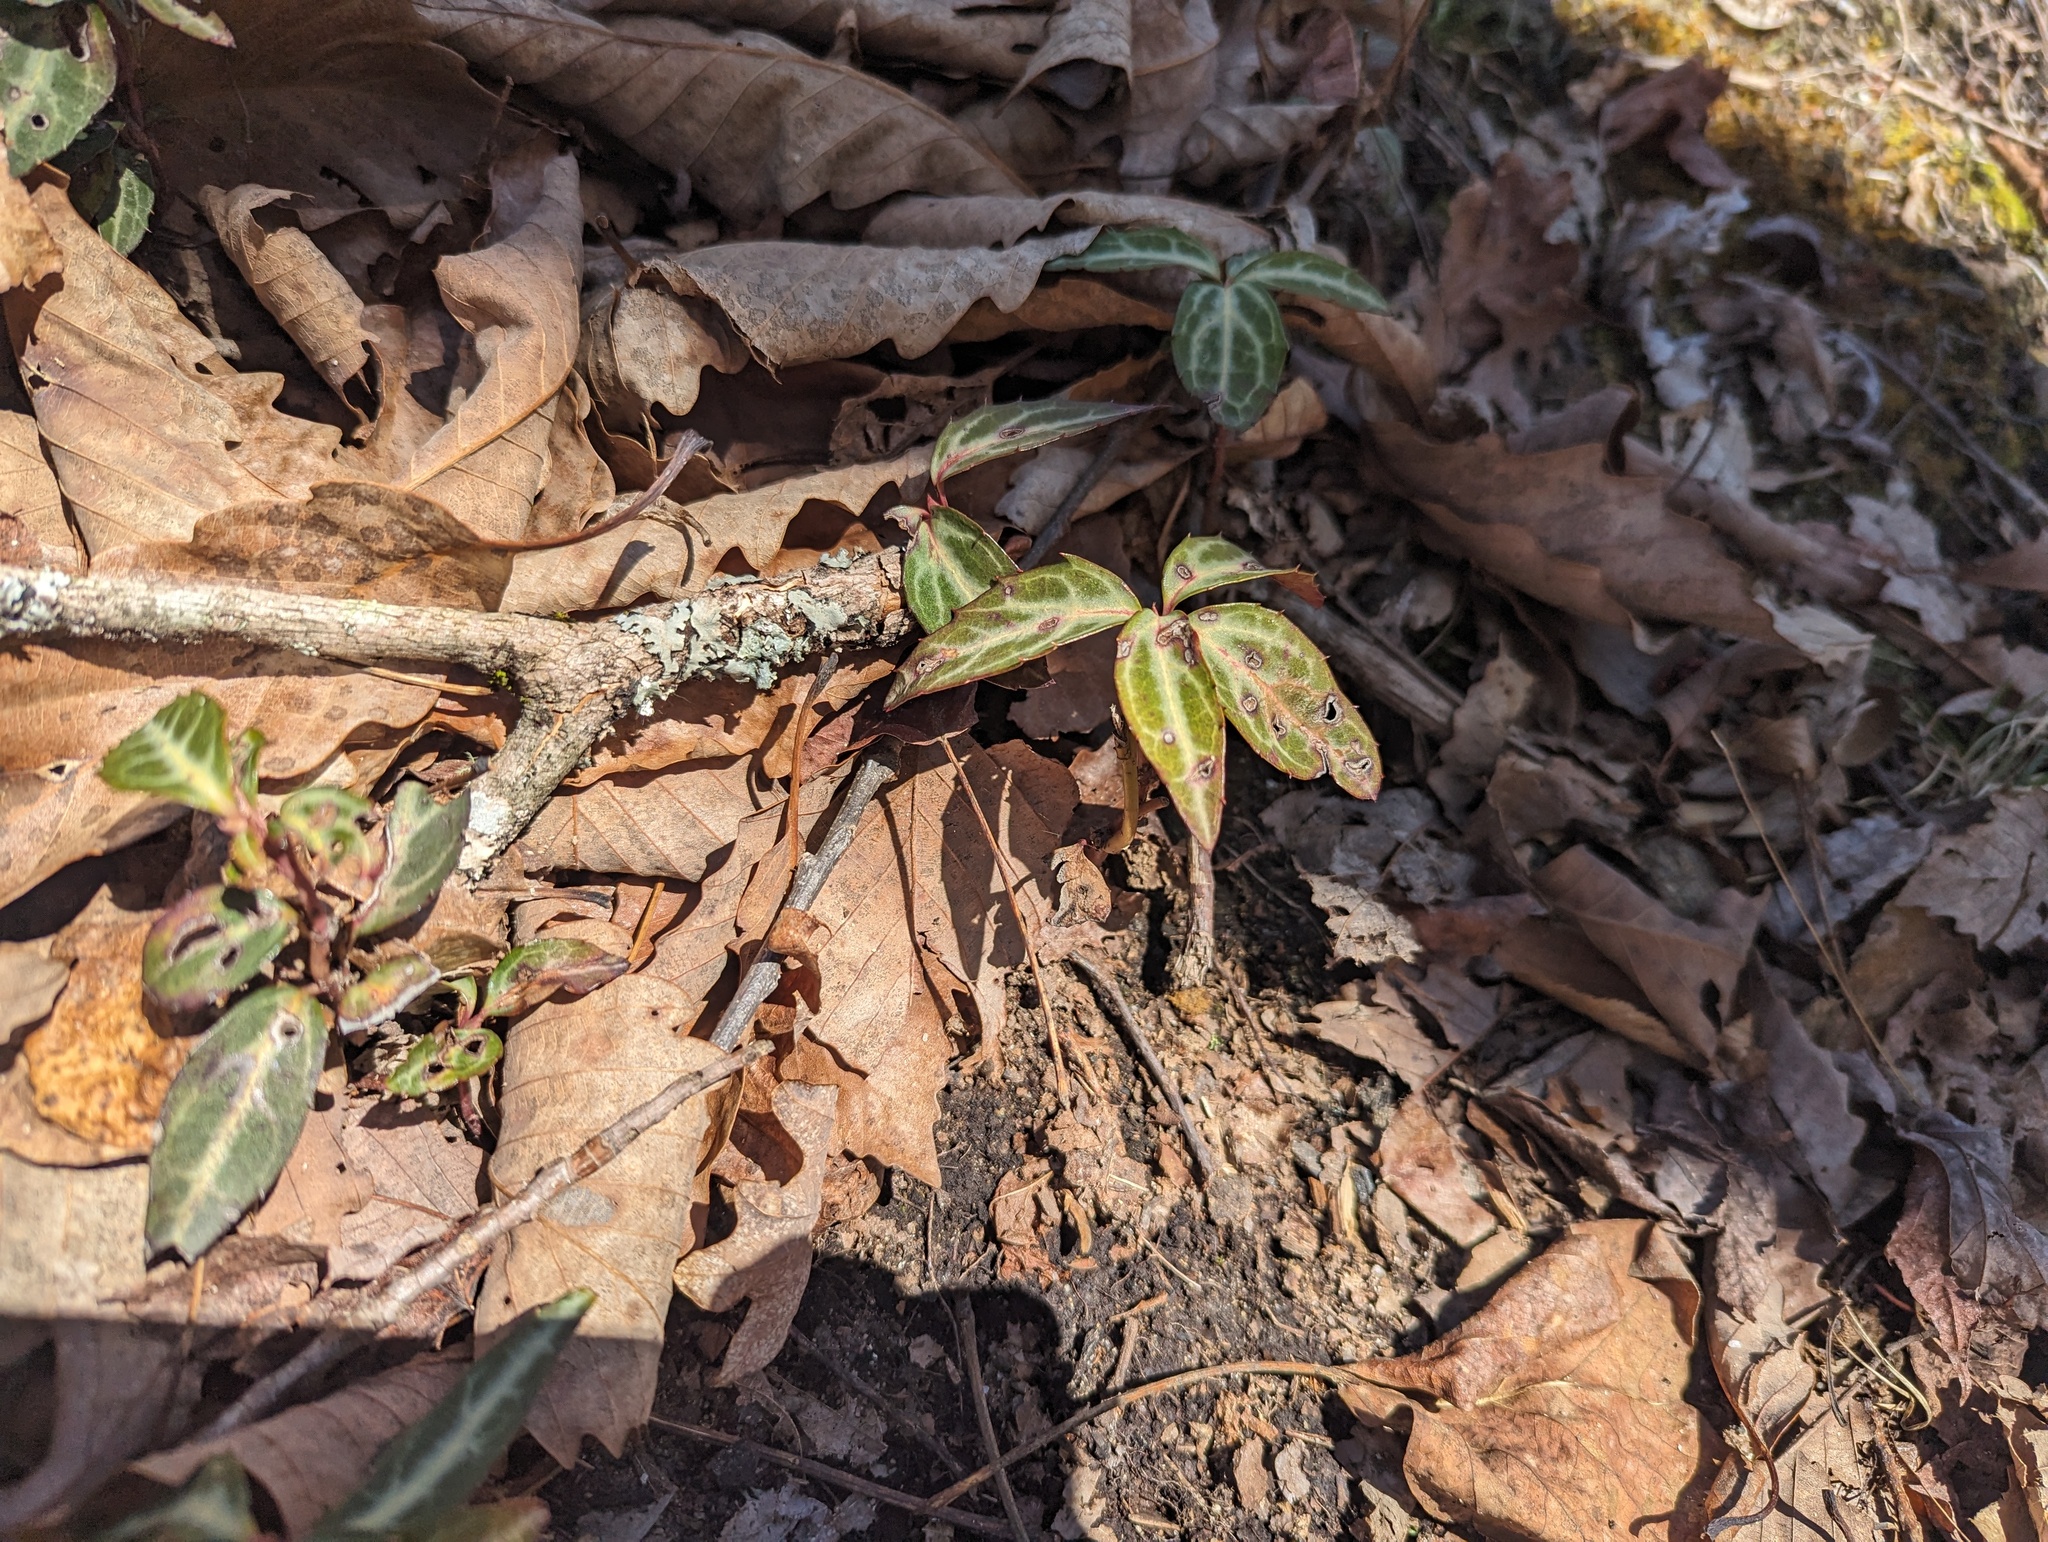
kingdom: Plantae
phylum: Tracheophyta
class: Magnoliopsida
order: Ericales
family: Ericaceae
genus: Chimaphila
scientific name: Chimaphila maculata
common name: Spotted pipsissewa
